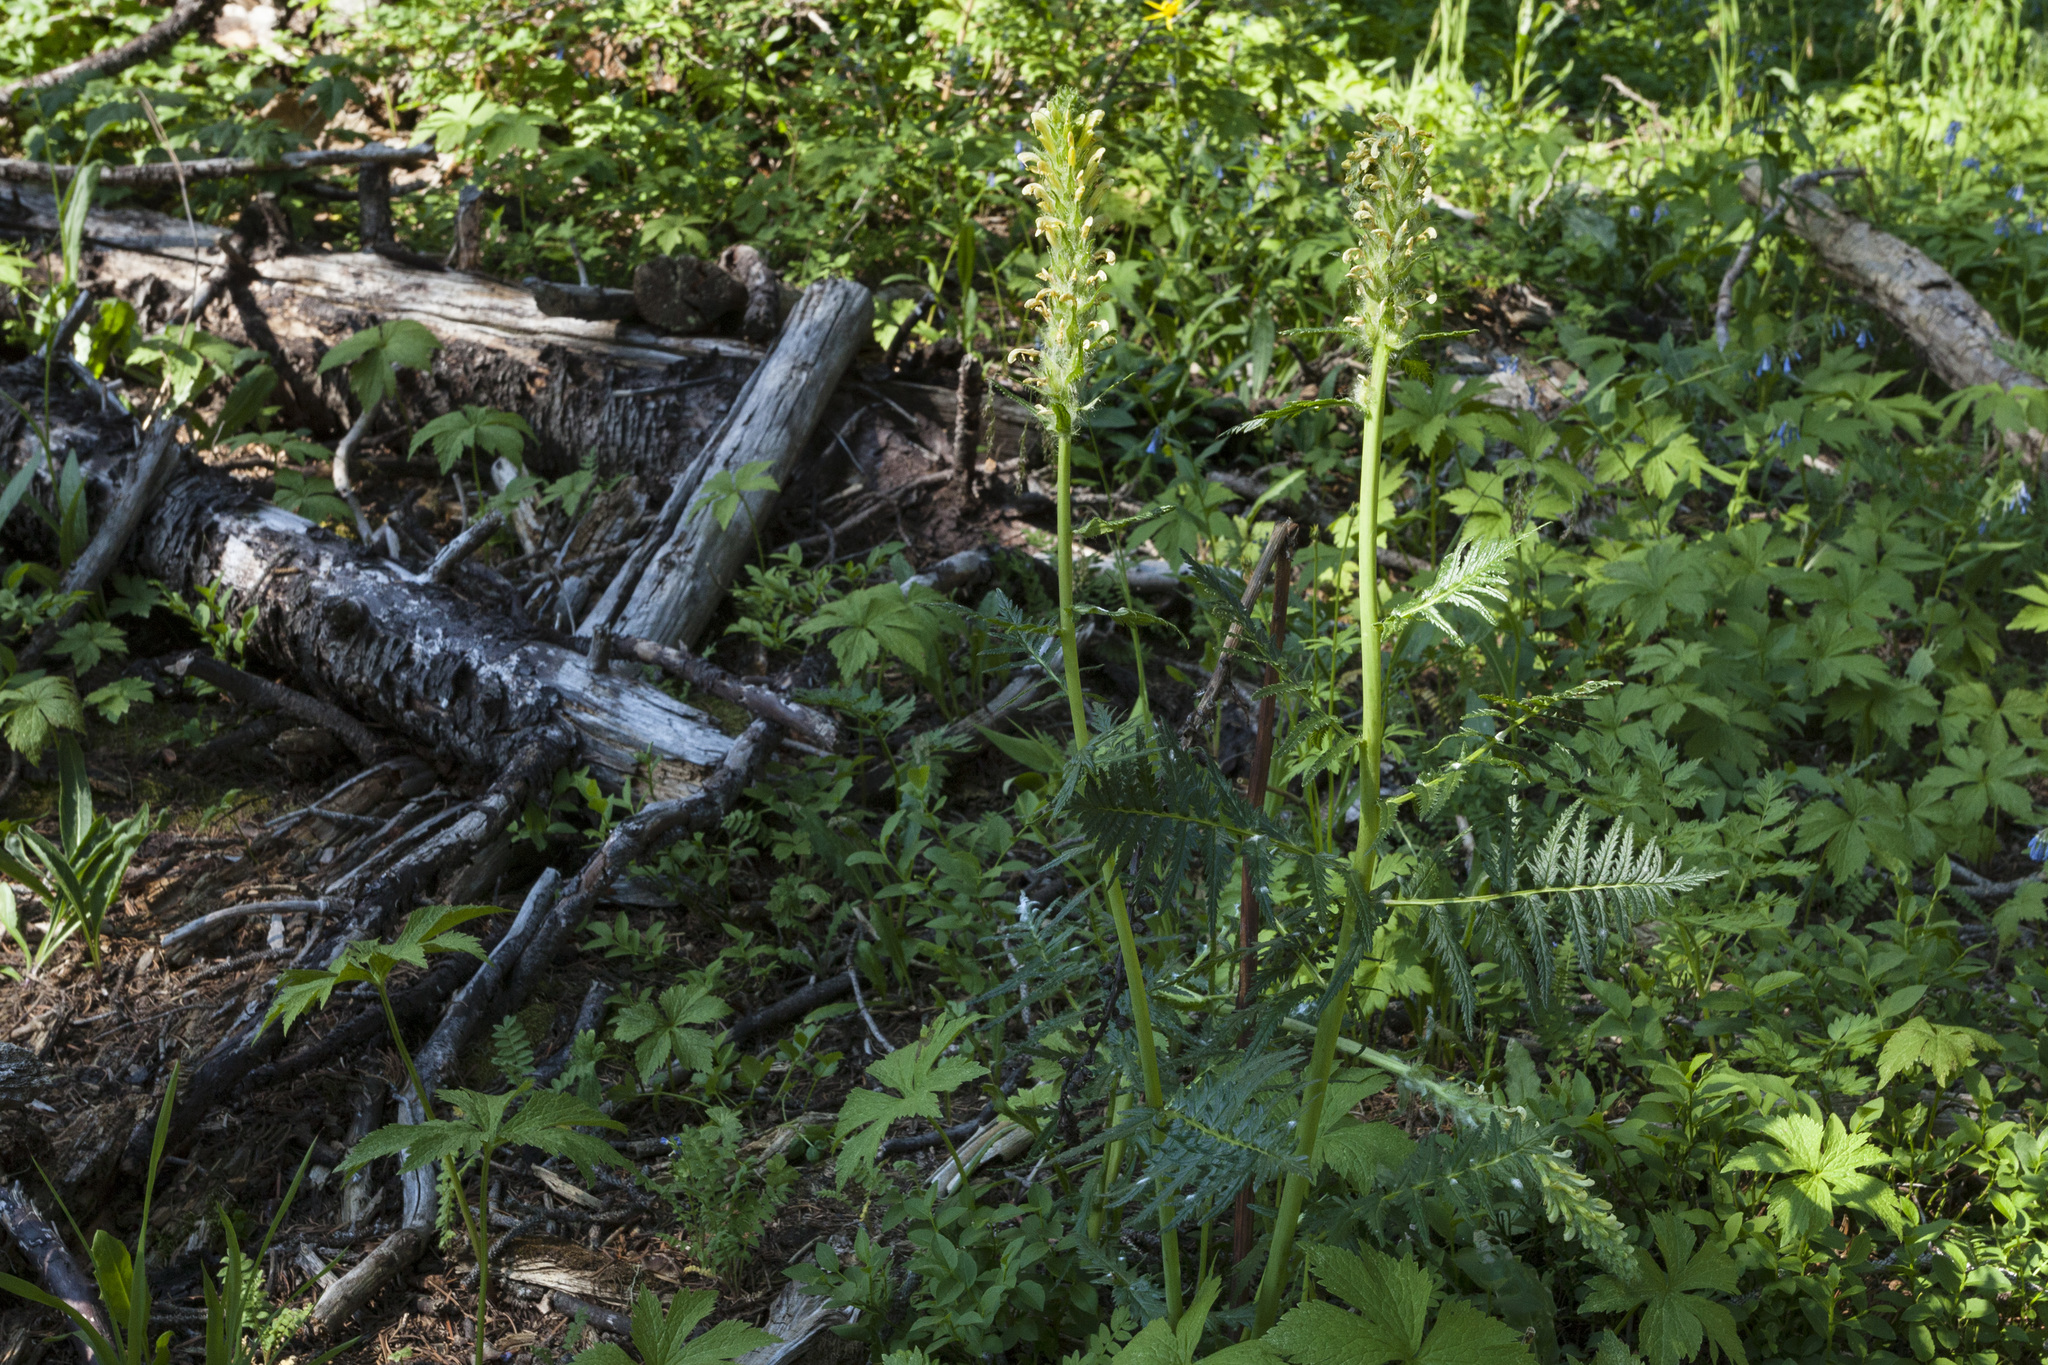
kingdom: Plantae
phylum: Tracheophyta
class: Magnoliopsida
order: Lamiales
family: Orobanchaceae
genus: Pedicularis
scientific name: Pedicularis bracteosa
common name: Bracted lousewort
